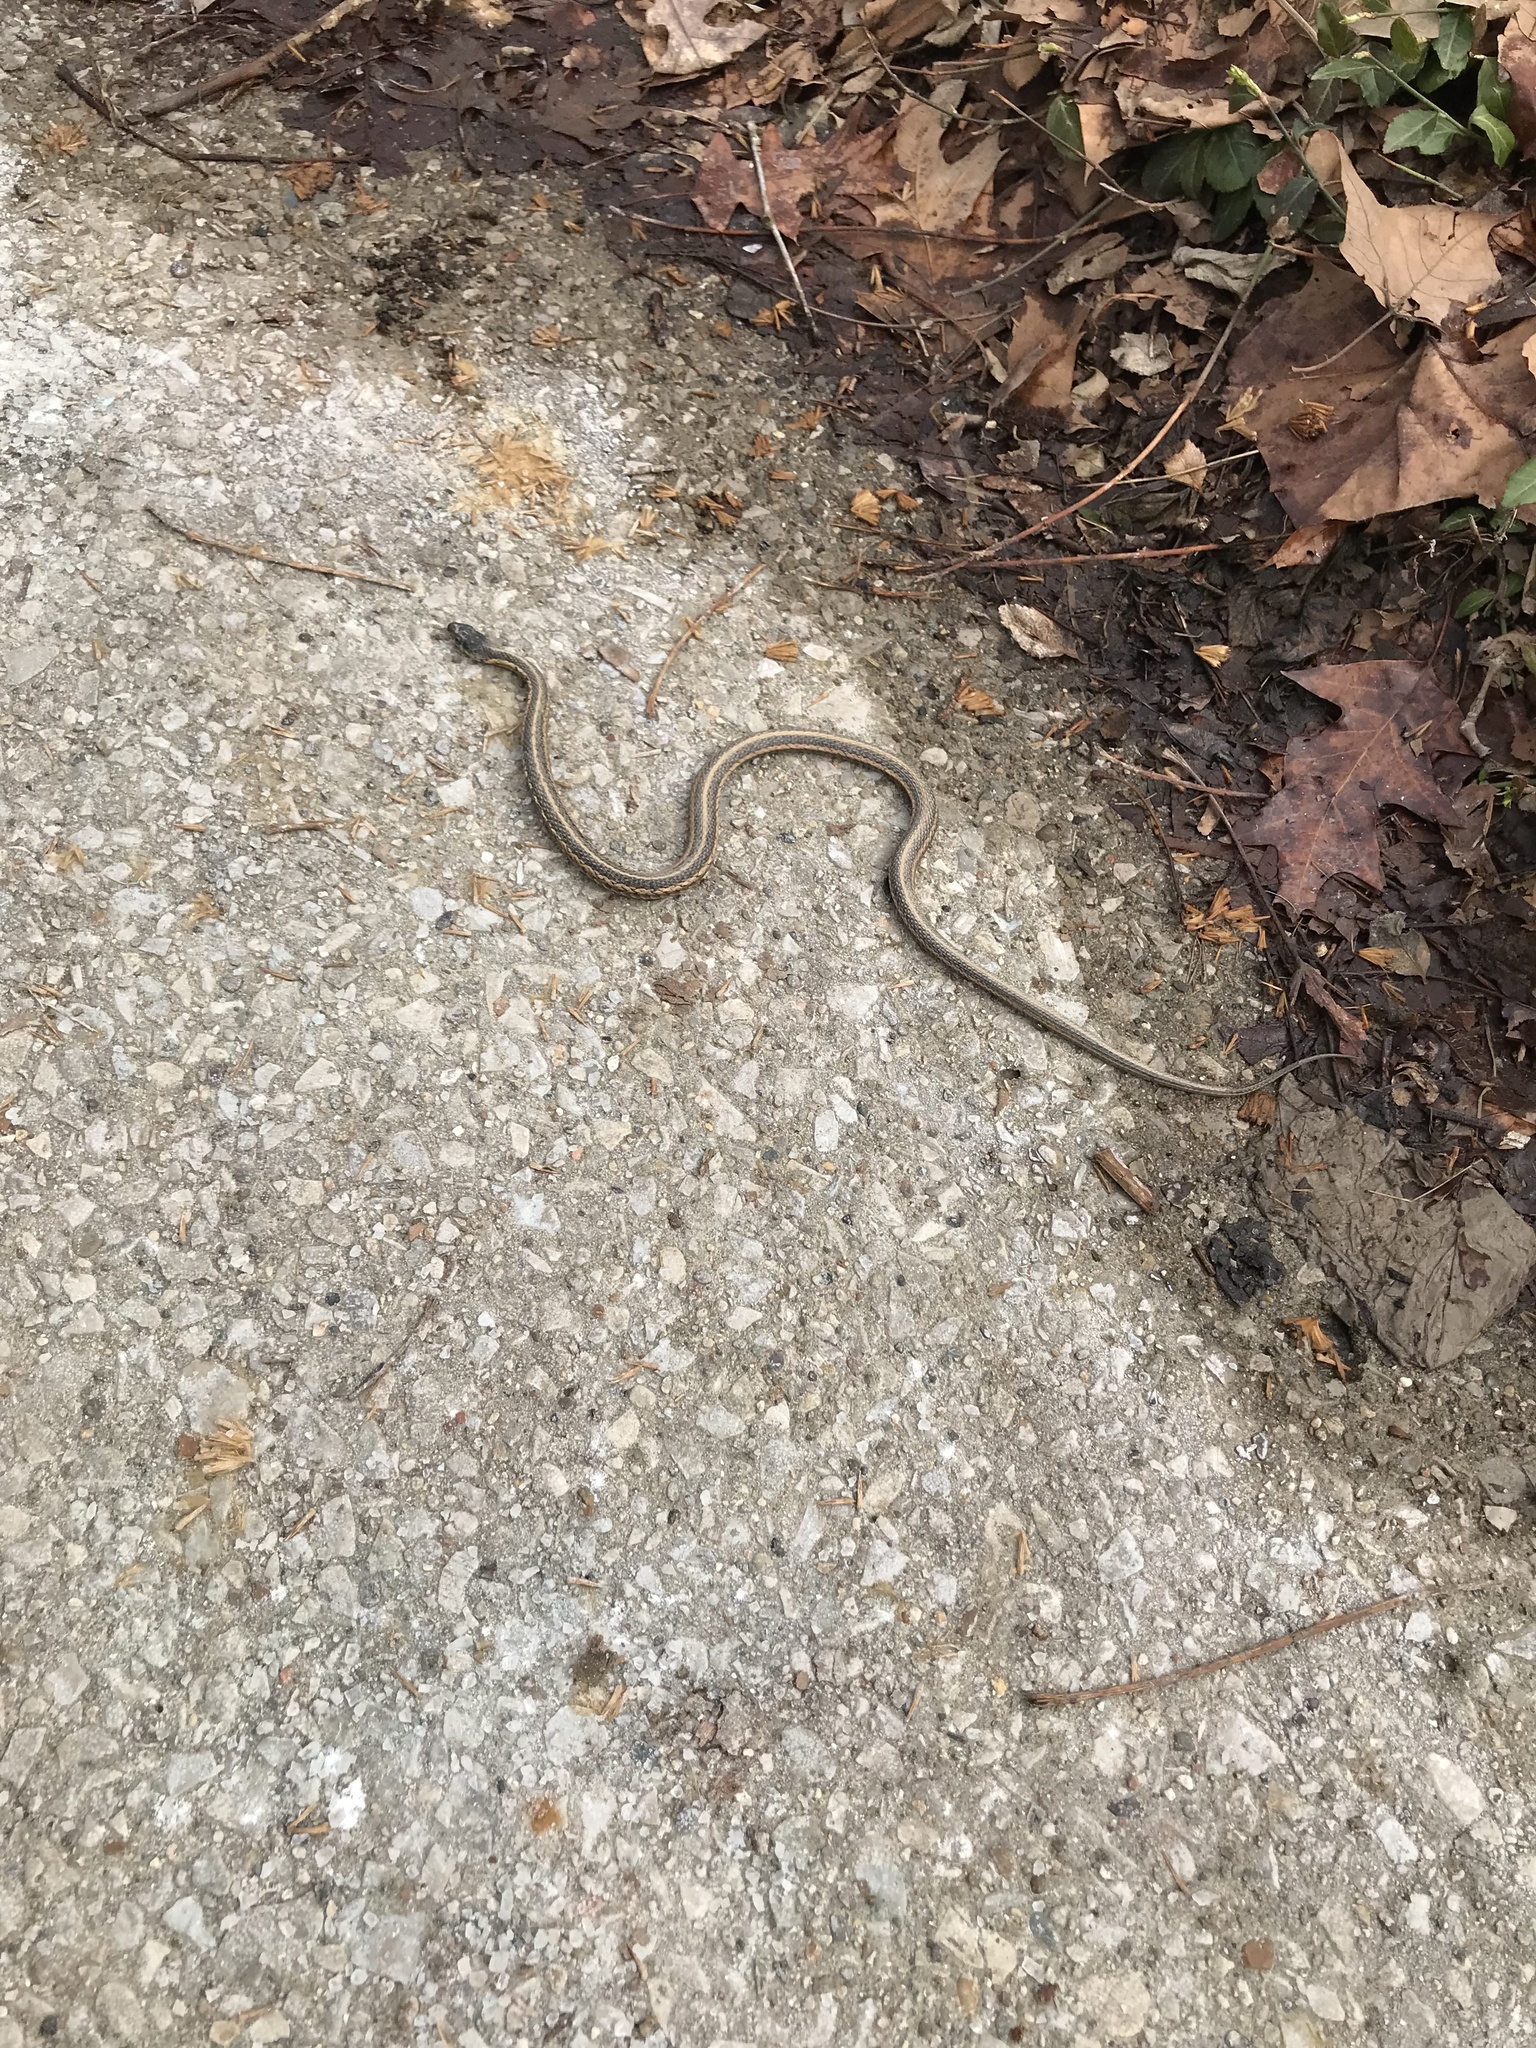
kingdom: Animalia
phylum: Chordata
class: Squamata
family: Colubridae
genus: Thamnophis
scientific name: Thamnophis sirtalis
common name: Common garter snake
